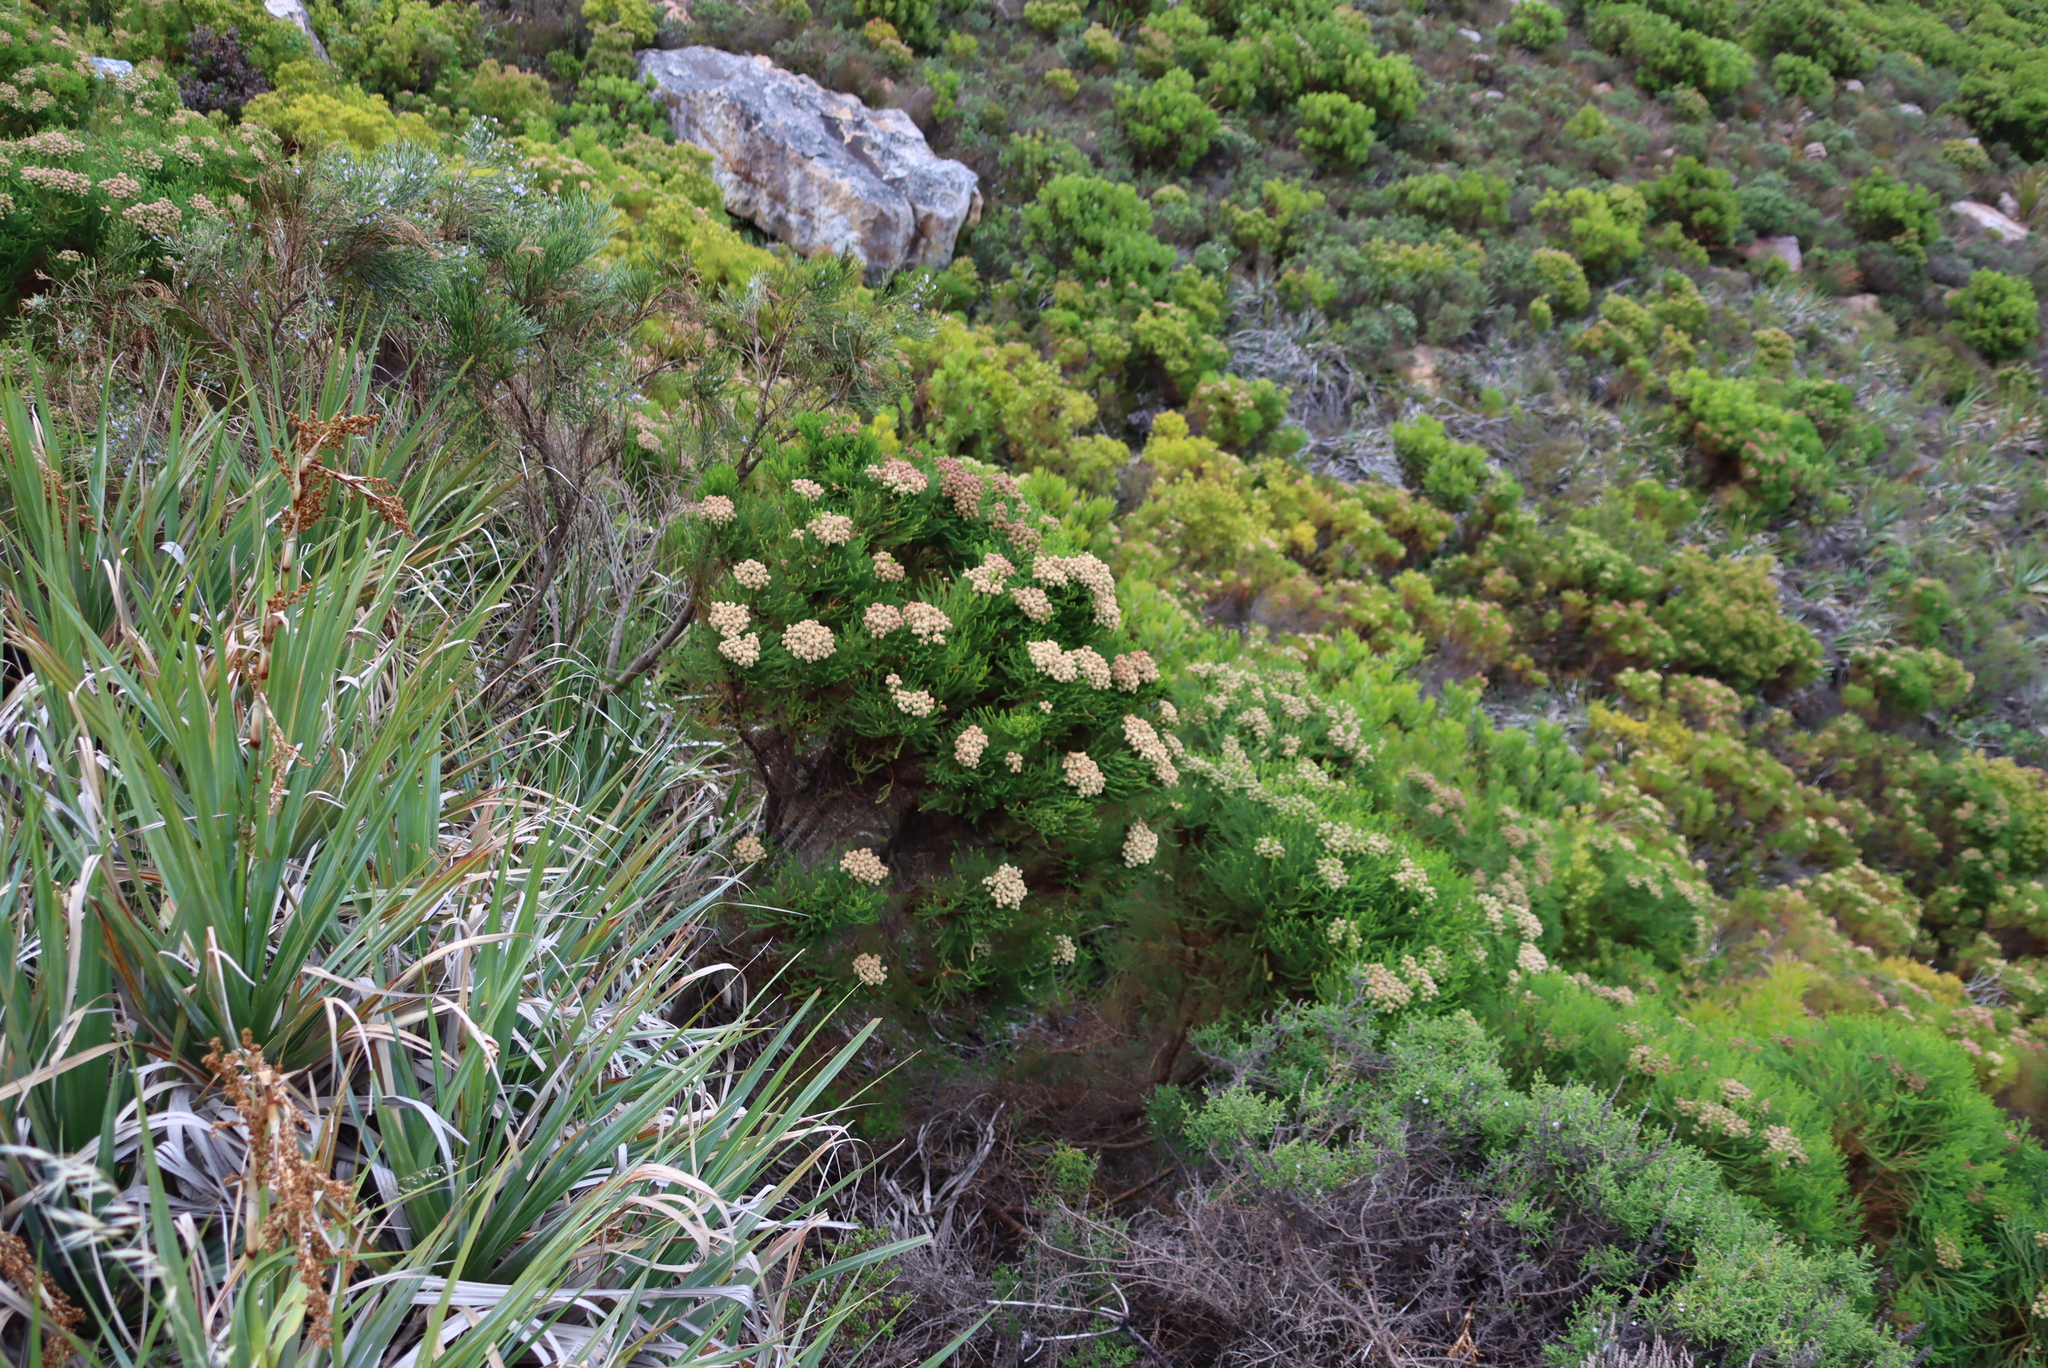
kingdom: Plantae
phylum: Tracheophyta
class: Magnoliopsida
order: Bruniales
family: Bruniaceae
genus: Berzelia
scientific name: Berzelia lanuginosa
